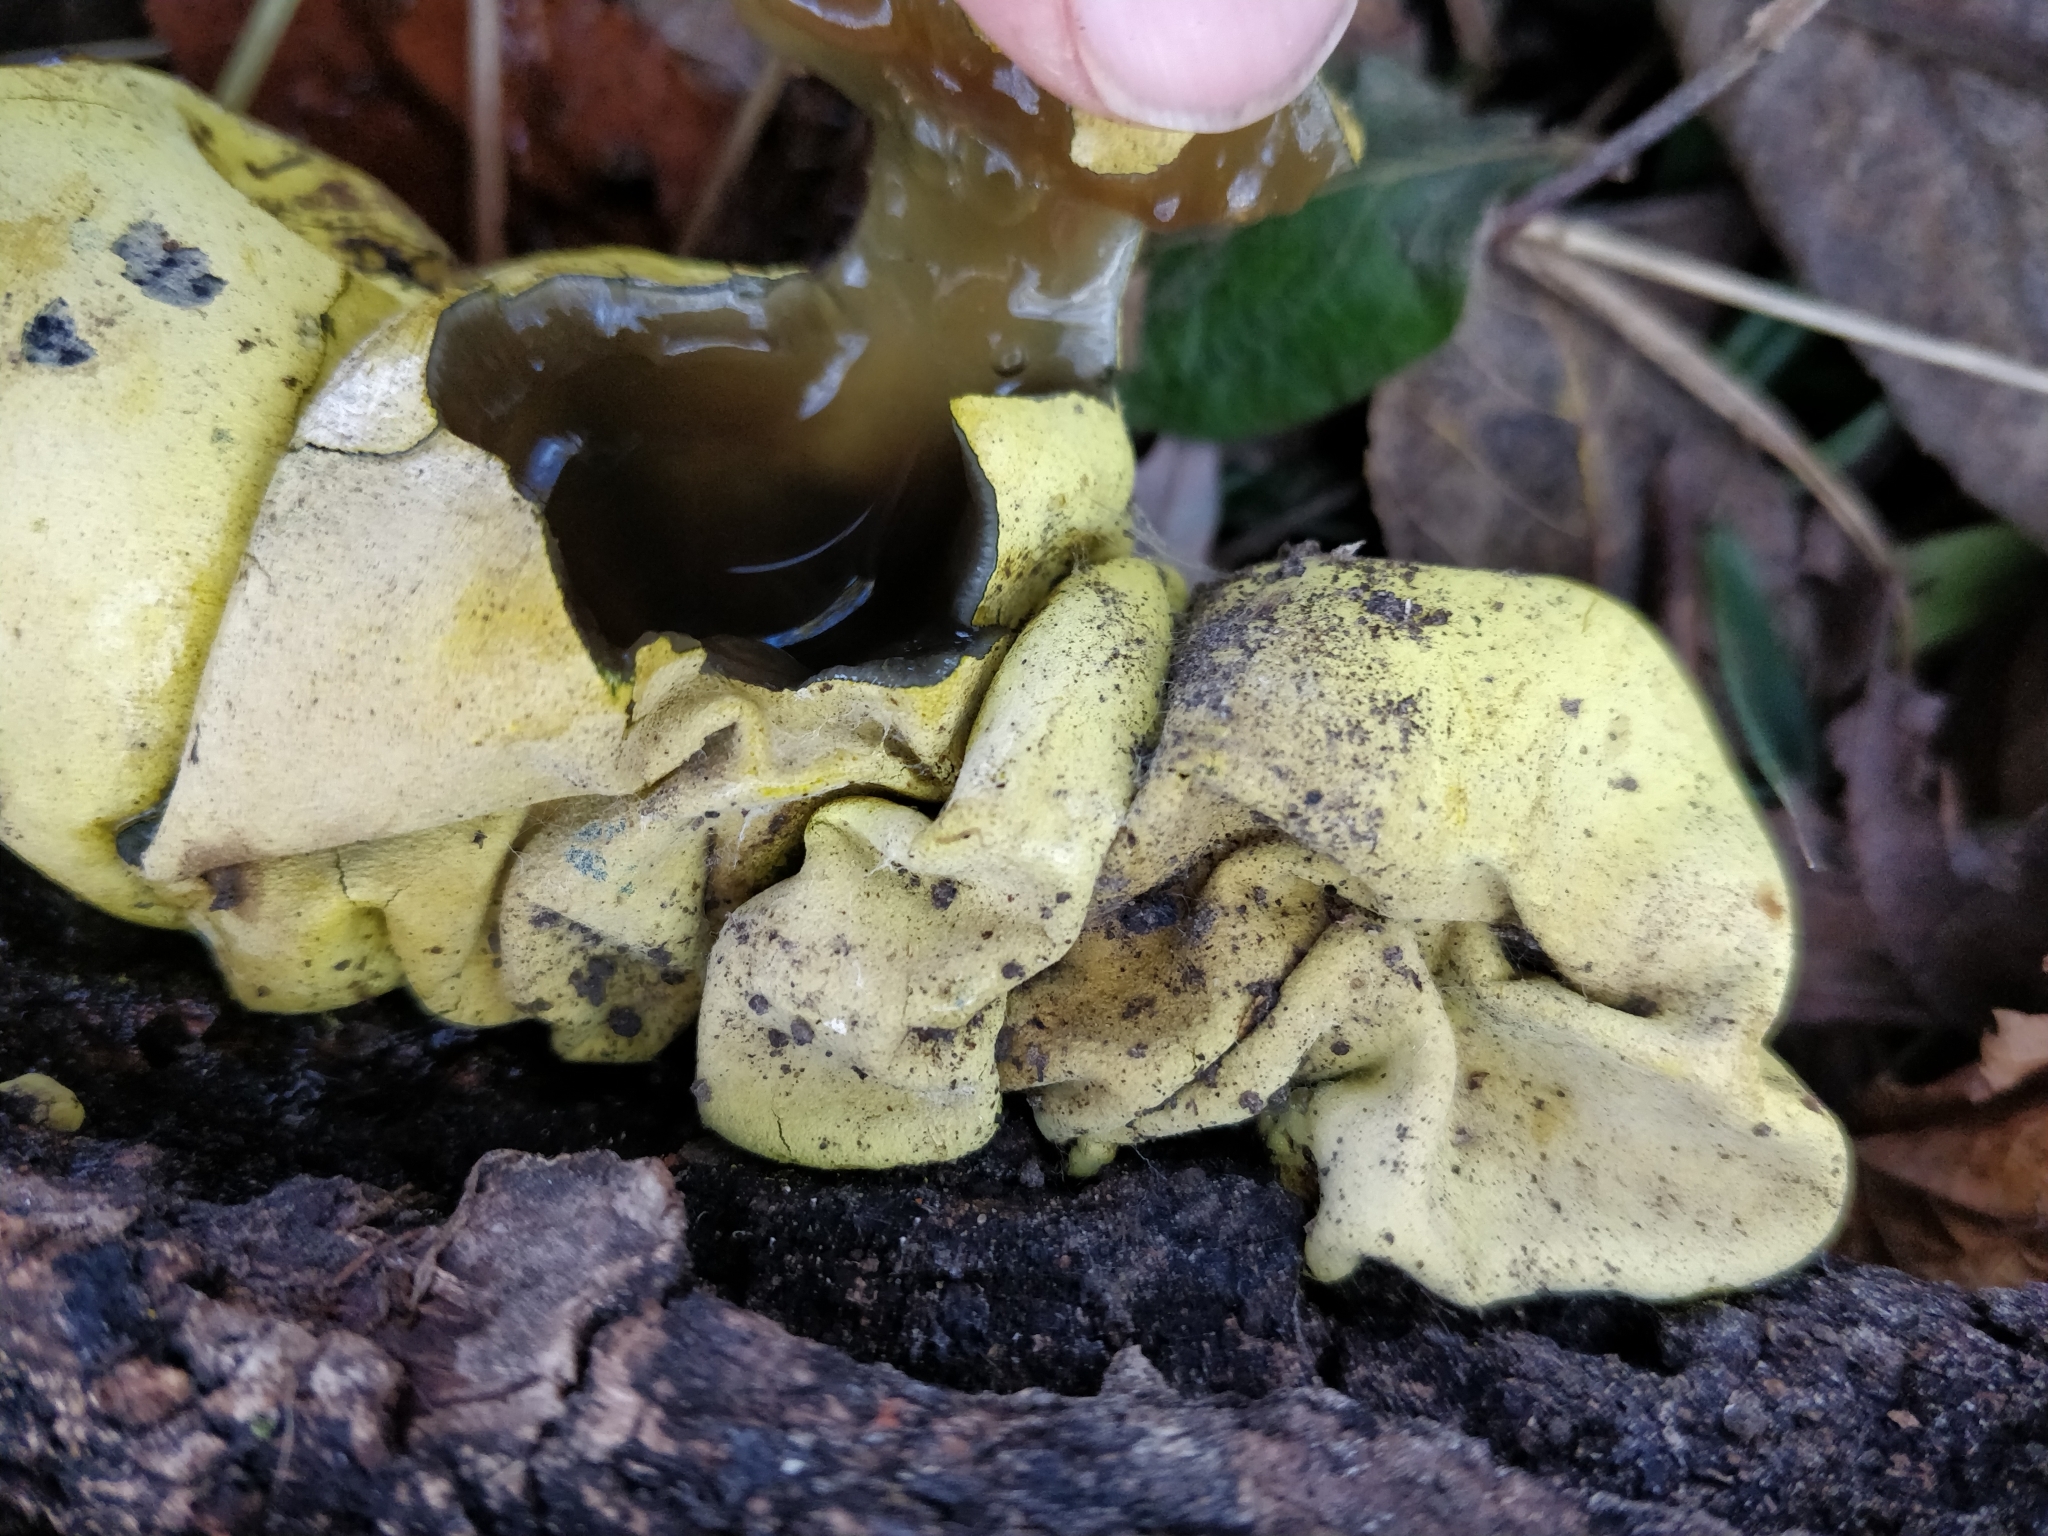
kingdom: Fungi
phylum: Ascomycota
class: Sordariomycetes
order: Xylariales
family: Hypoxylaceae
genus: Entonaema
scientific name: Entonaema liquescens
